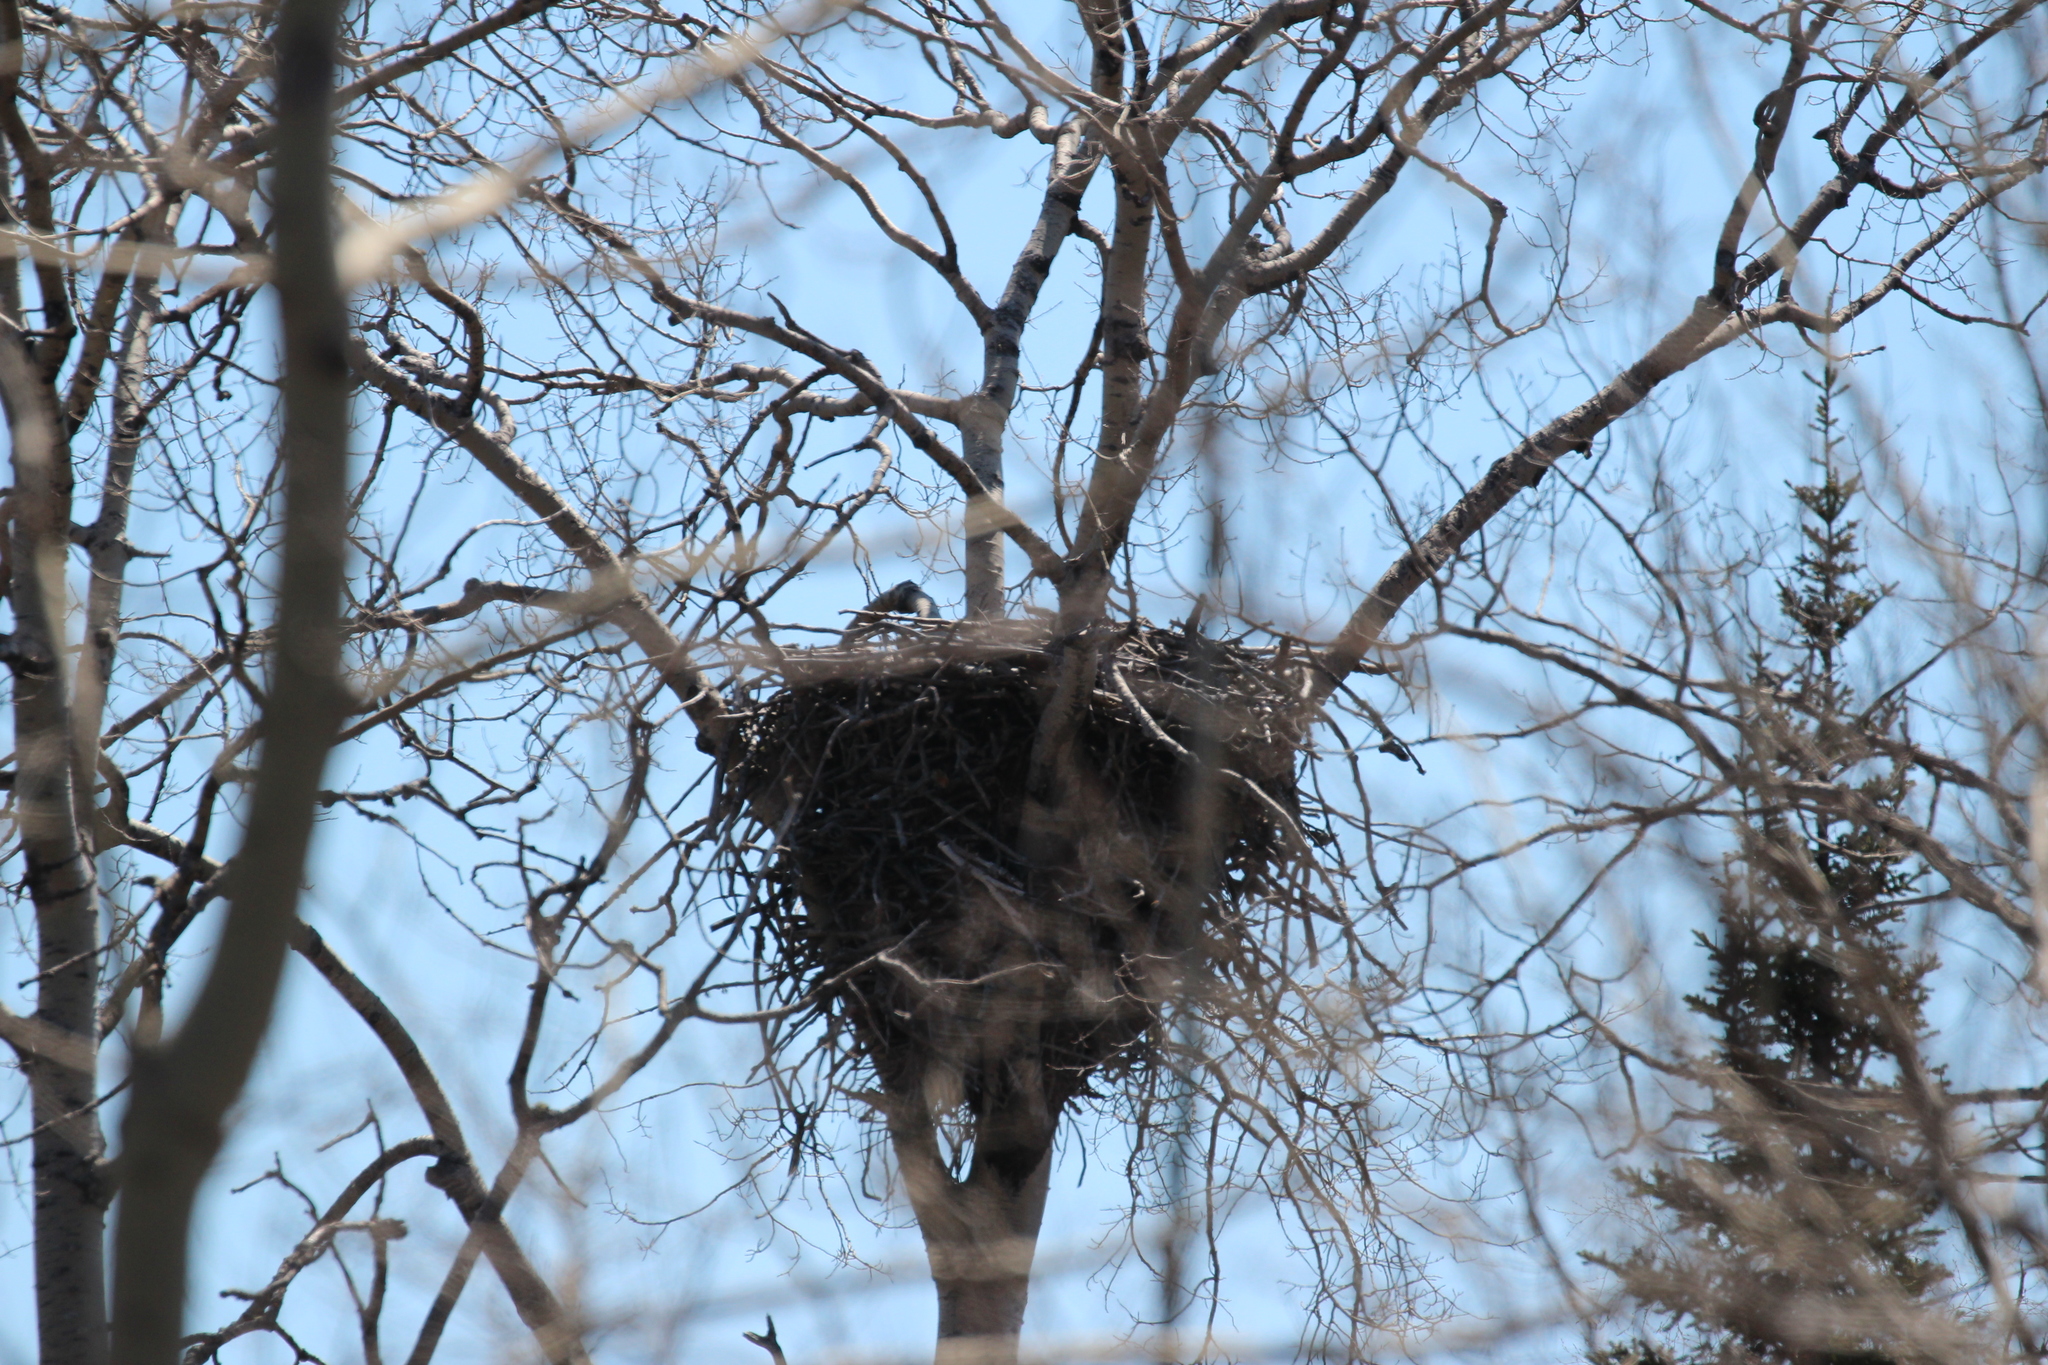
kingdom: Animalia
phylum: Chordata
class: Aves
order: Accipitriformes
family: Accipitridae
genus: Haliaeetus
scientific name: Haliaeetus leucocephalus
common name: Bald eagle
